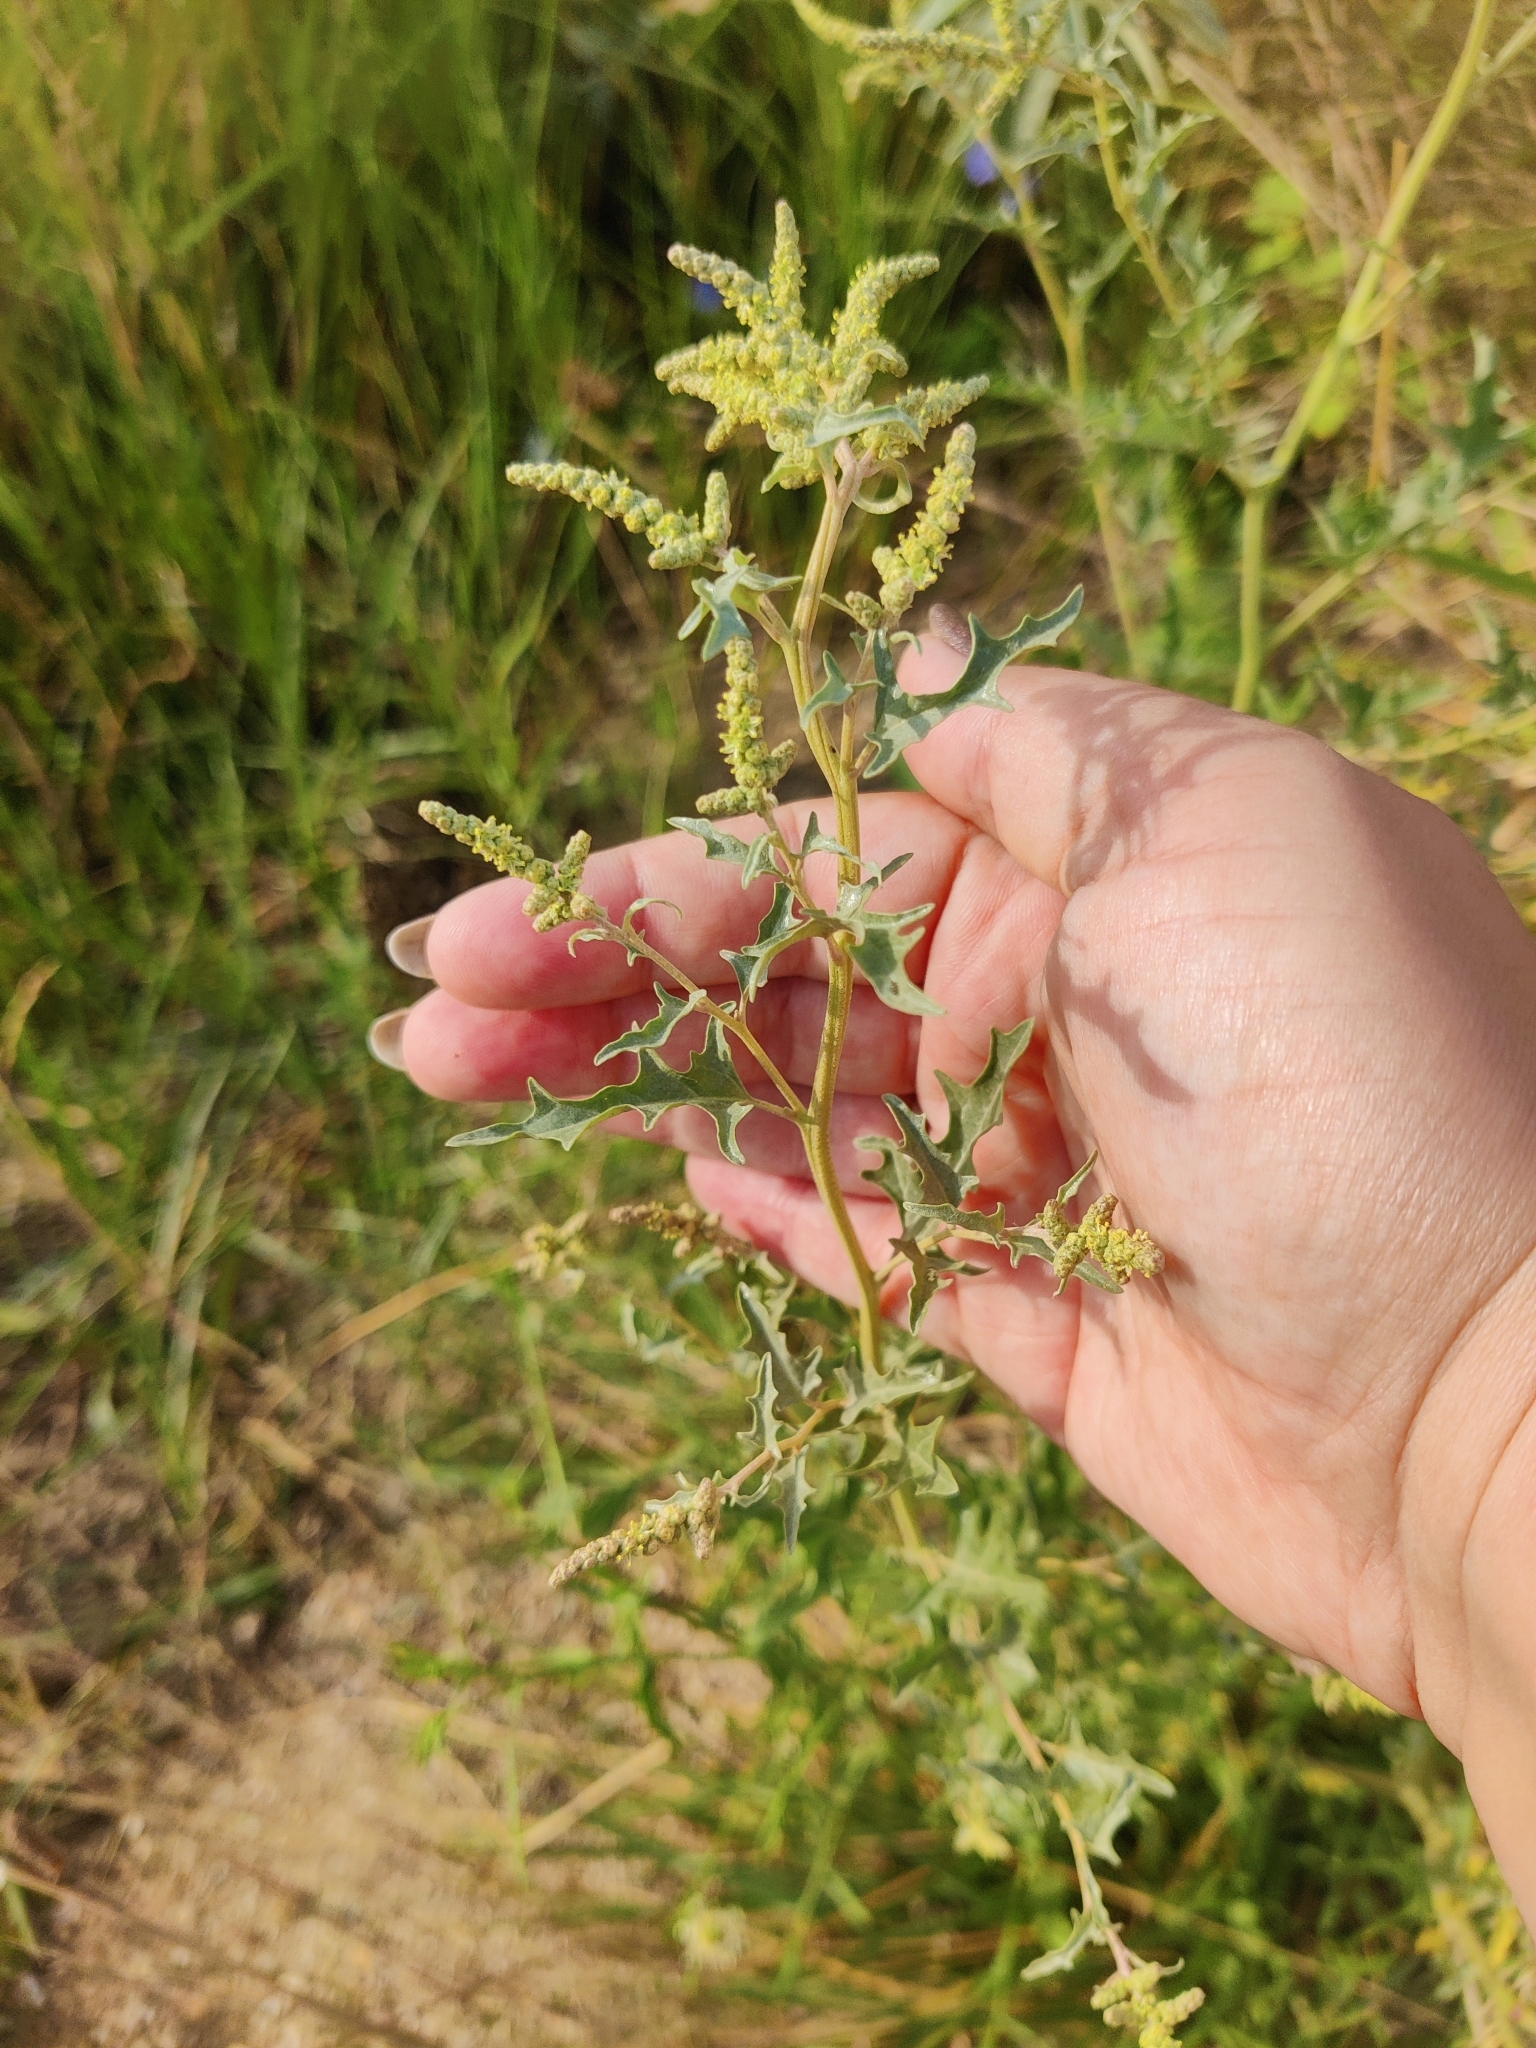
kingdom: Plantae
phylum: Tracheophyta
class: Magnoliopsida
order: Caryophyllales
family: Amaranthaceae
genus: Atriplex
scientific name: Atriplex tatarica
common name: Tatarian orache
